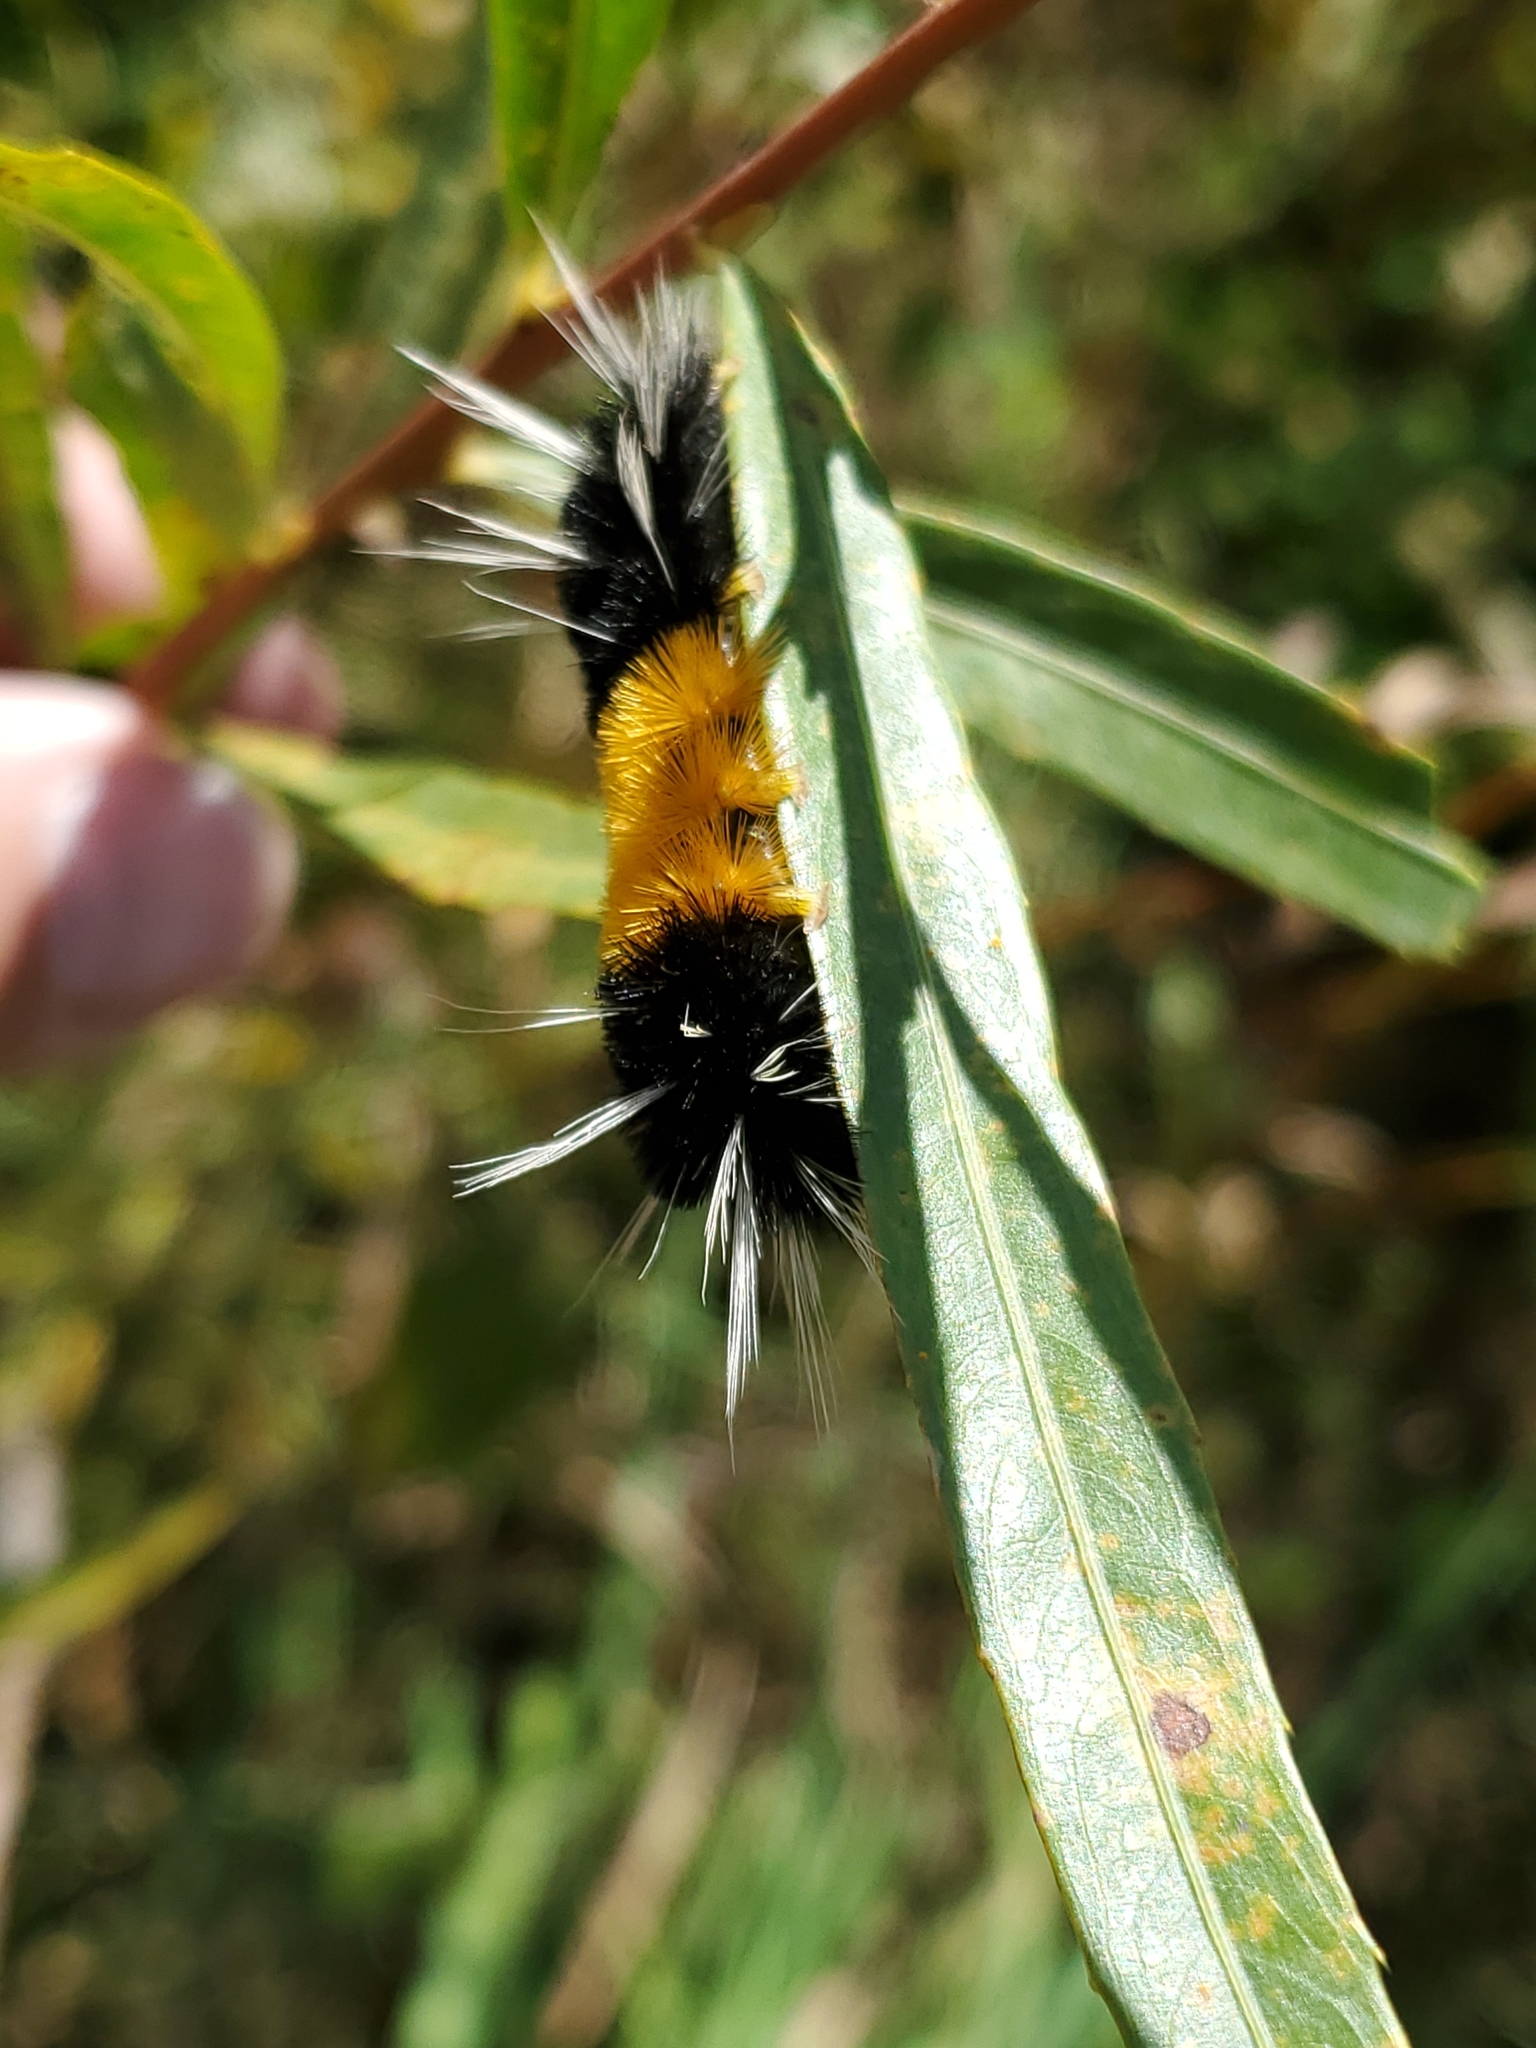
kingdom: Animalia
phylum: Arthropoda
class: Insecta
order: Lepidoptera
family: Erebidae
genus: Lophocampa
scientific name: Lophocampa maculata
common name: Spotted tussock moth
